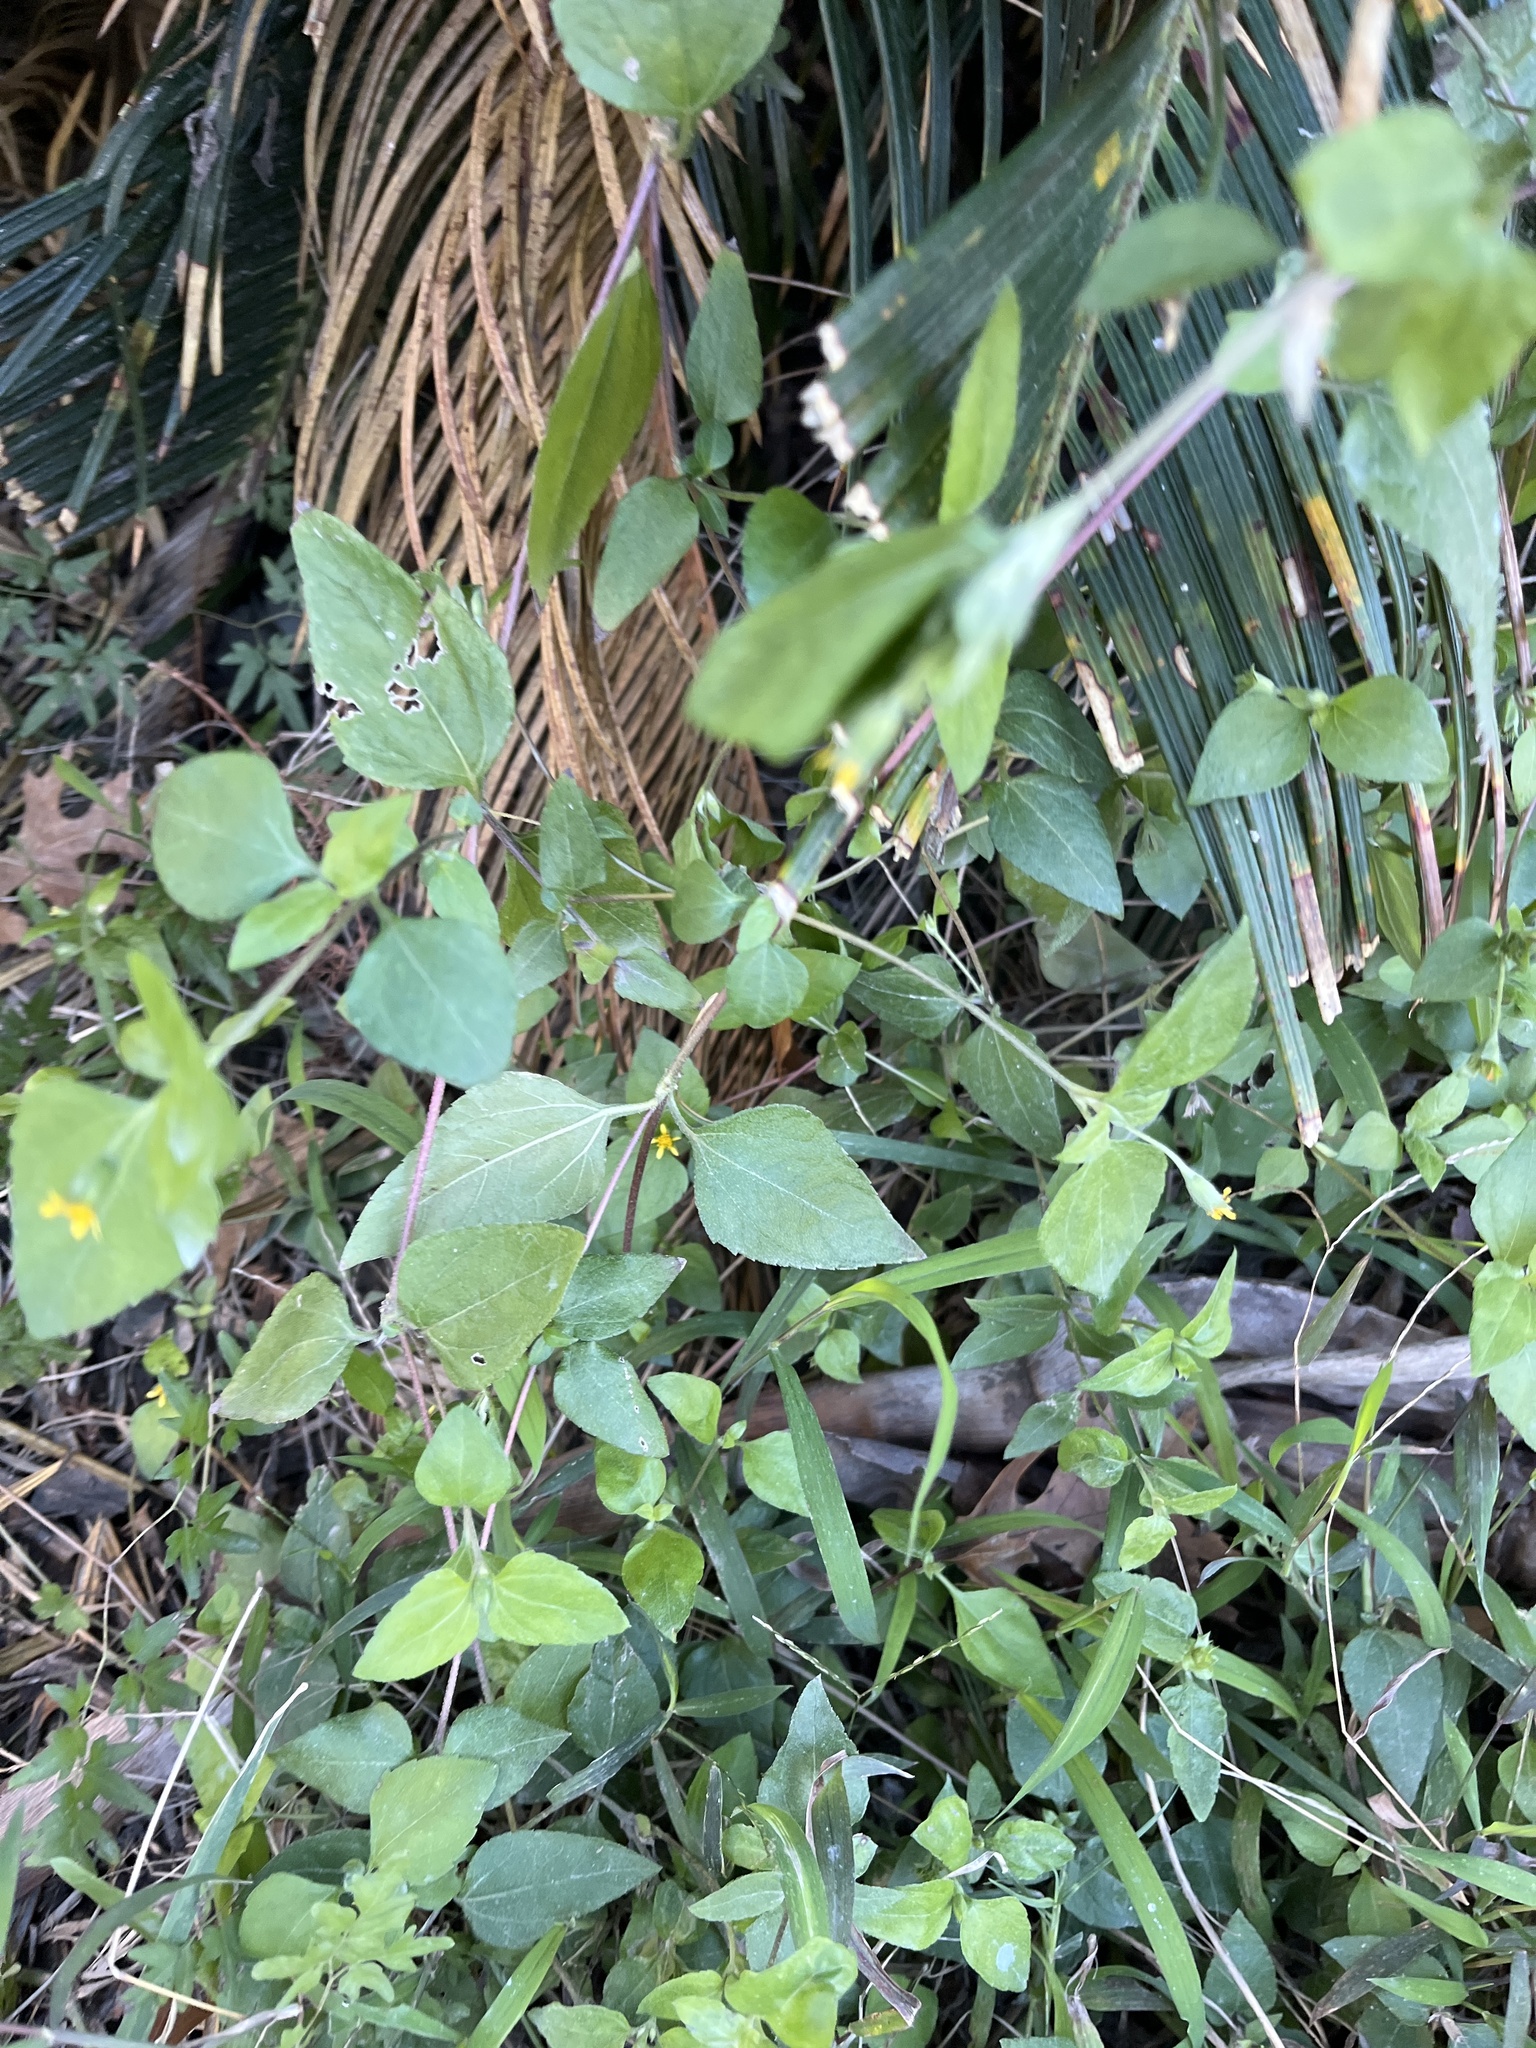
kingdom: Plantae
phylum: Tracheophyta
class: Magnoliopsida
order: Asterales
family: Asteraceae
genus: Calyptocarpus
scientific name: Calyptocarpus vialis
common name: Straggler daisy
